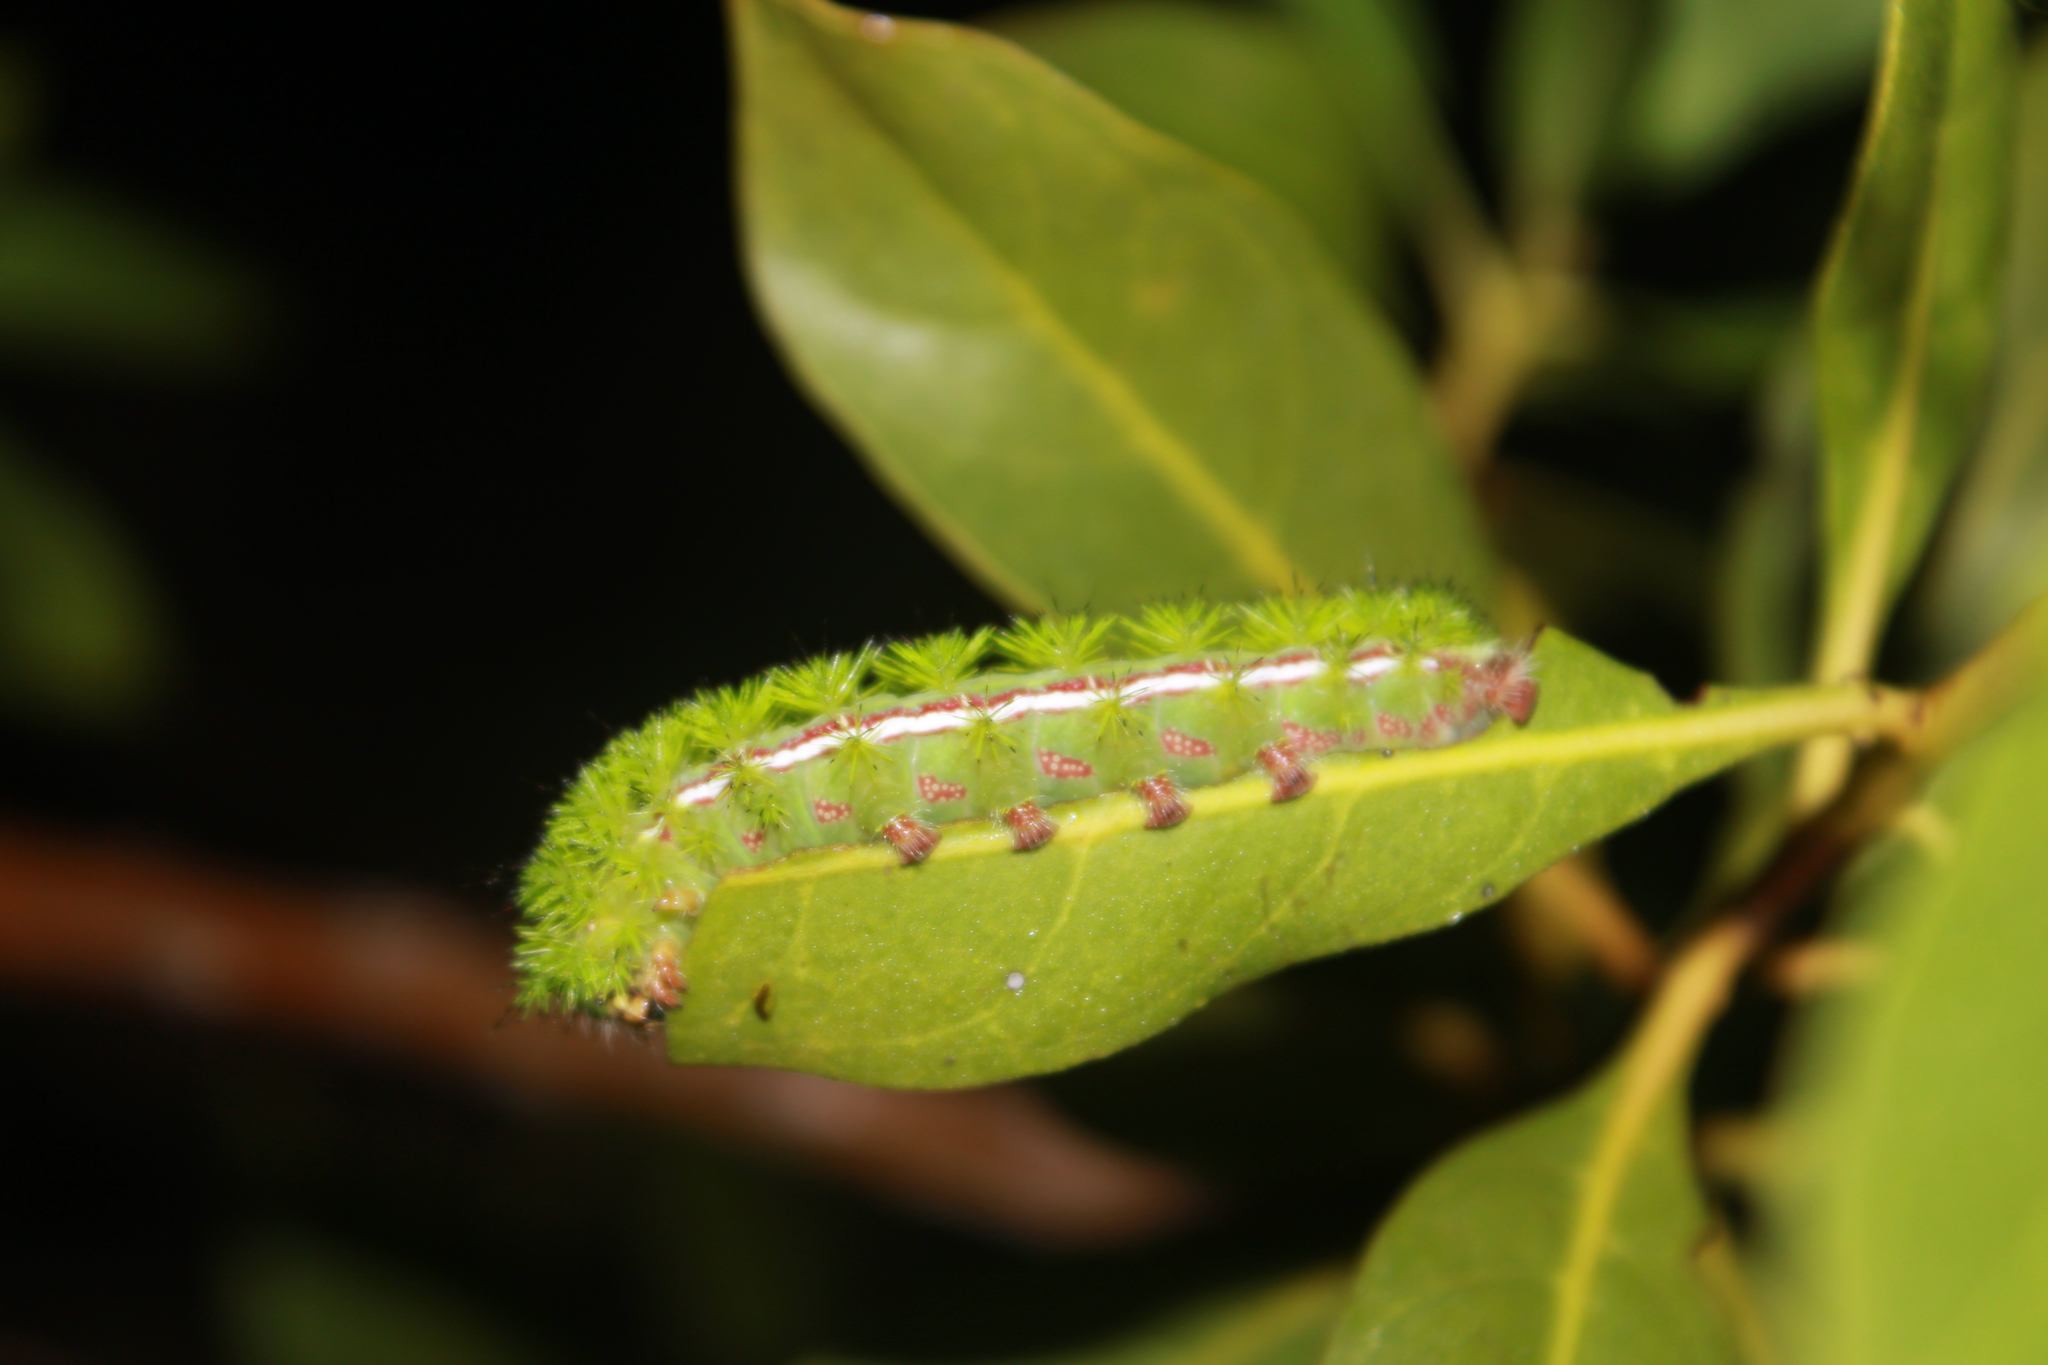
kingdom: Animalia
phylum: Arthropoda
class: Insecta
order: Lepidoptera
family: Saturniidae
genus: Automeris
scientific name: Automeris io
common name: Io moth
